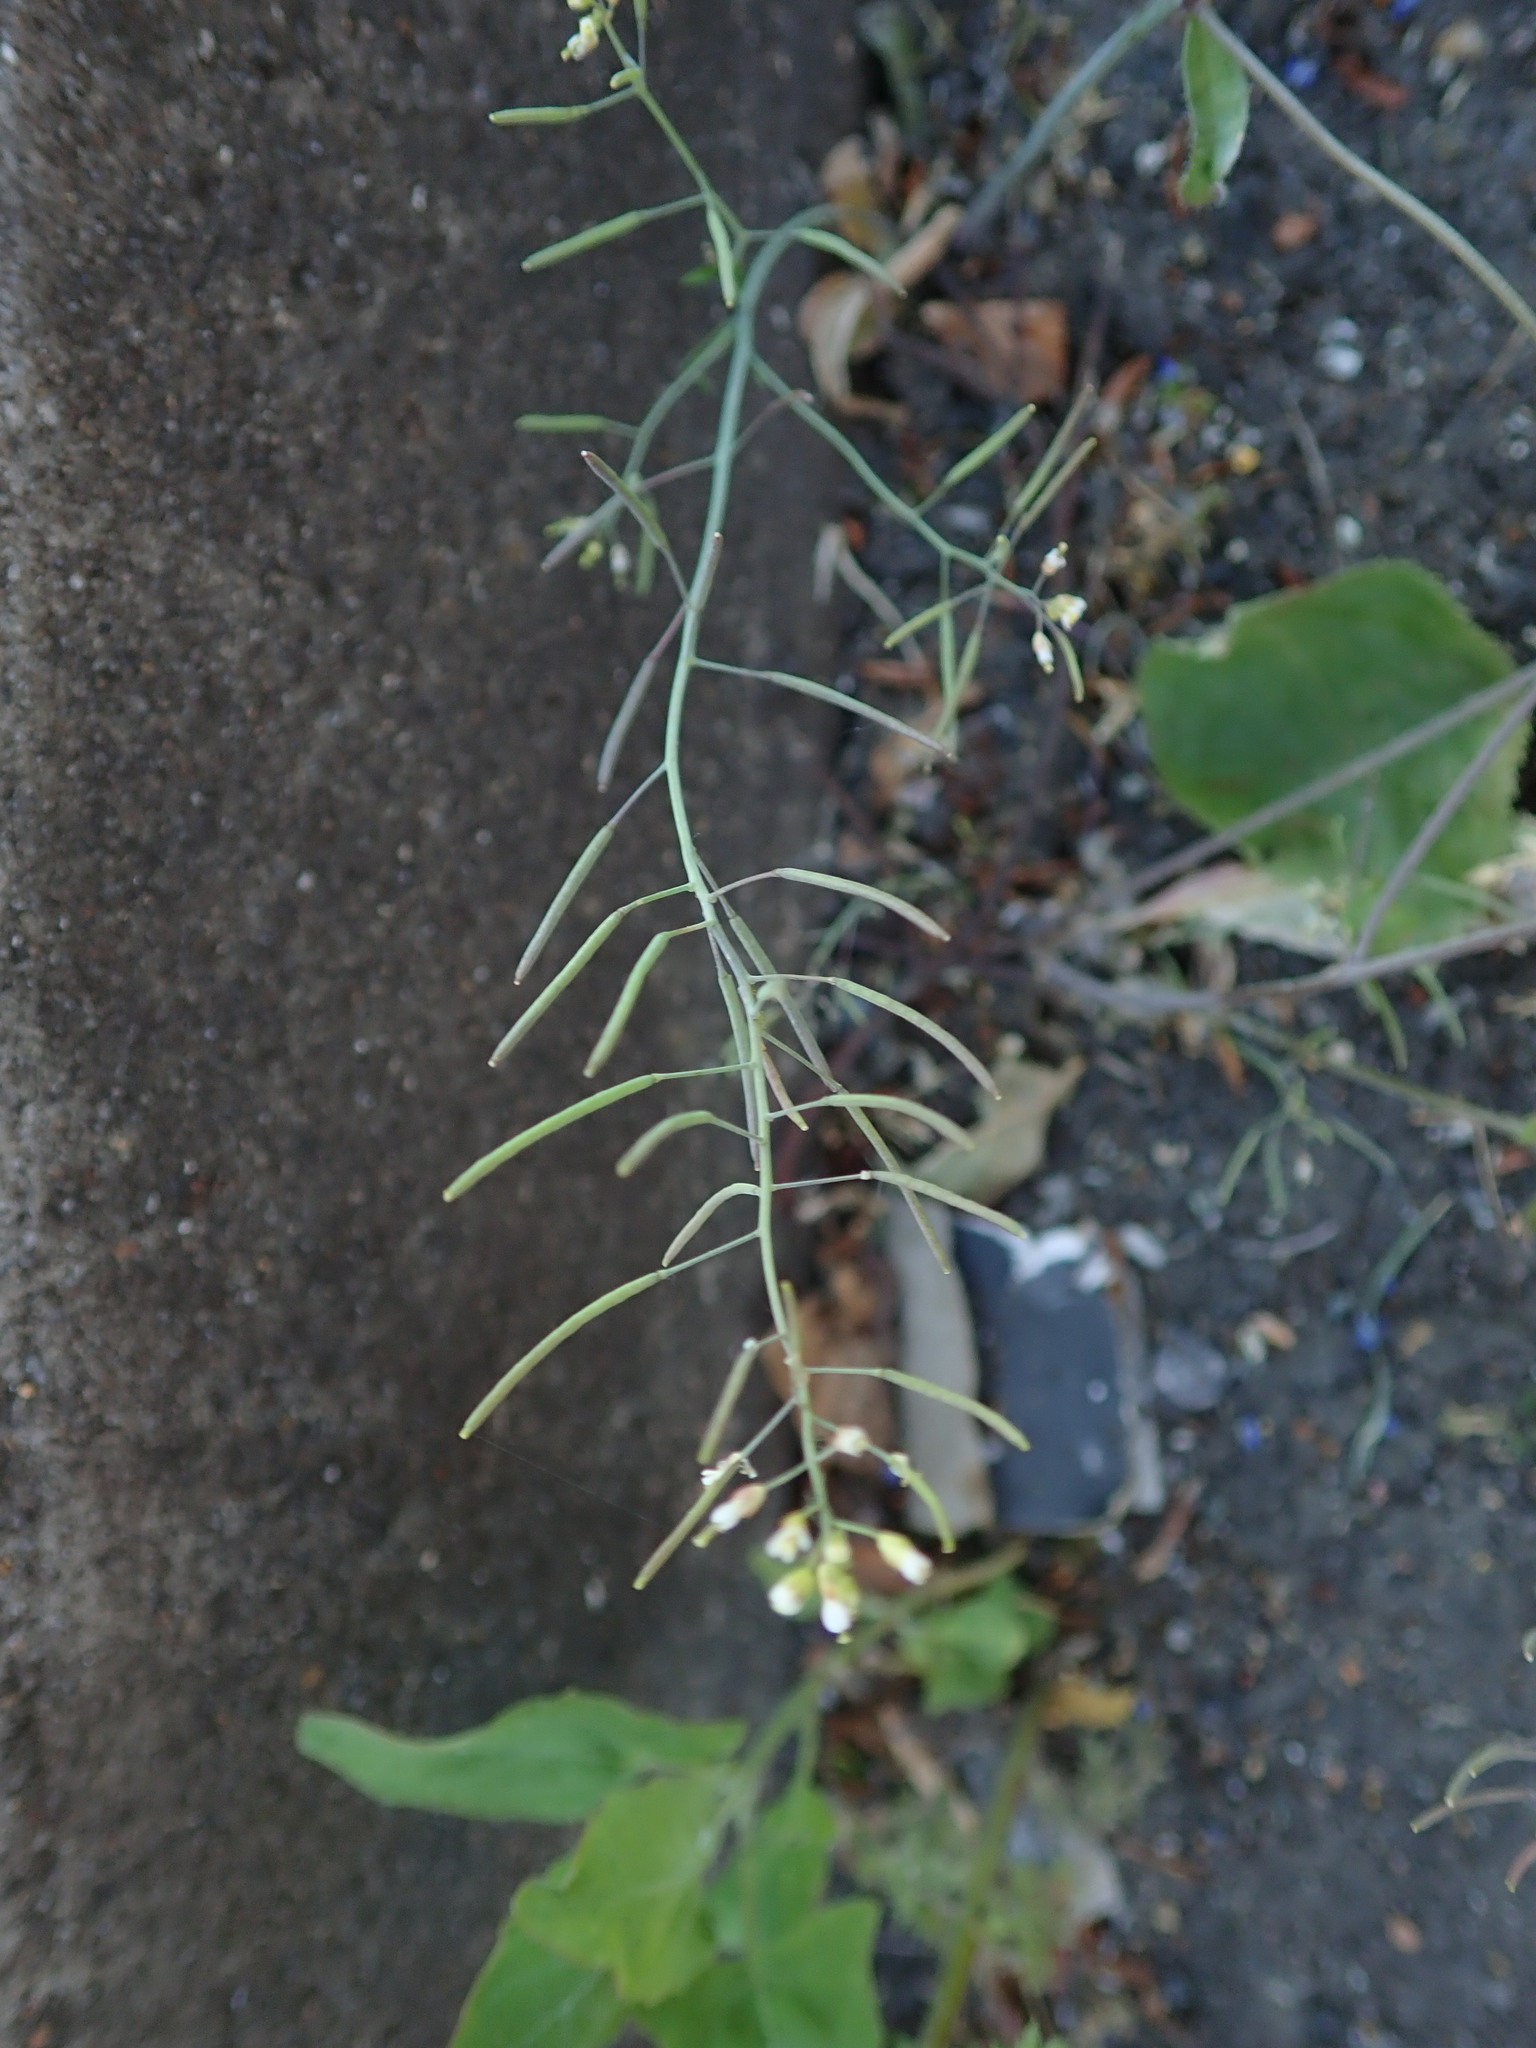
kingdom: Plantae
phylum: Tracheophyta
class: Magnoliopsida
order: Brassicales
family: Brassicaceae
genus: Arabidopsis
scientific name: Arabidopsis thaliana
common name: Thale cress
